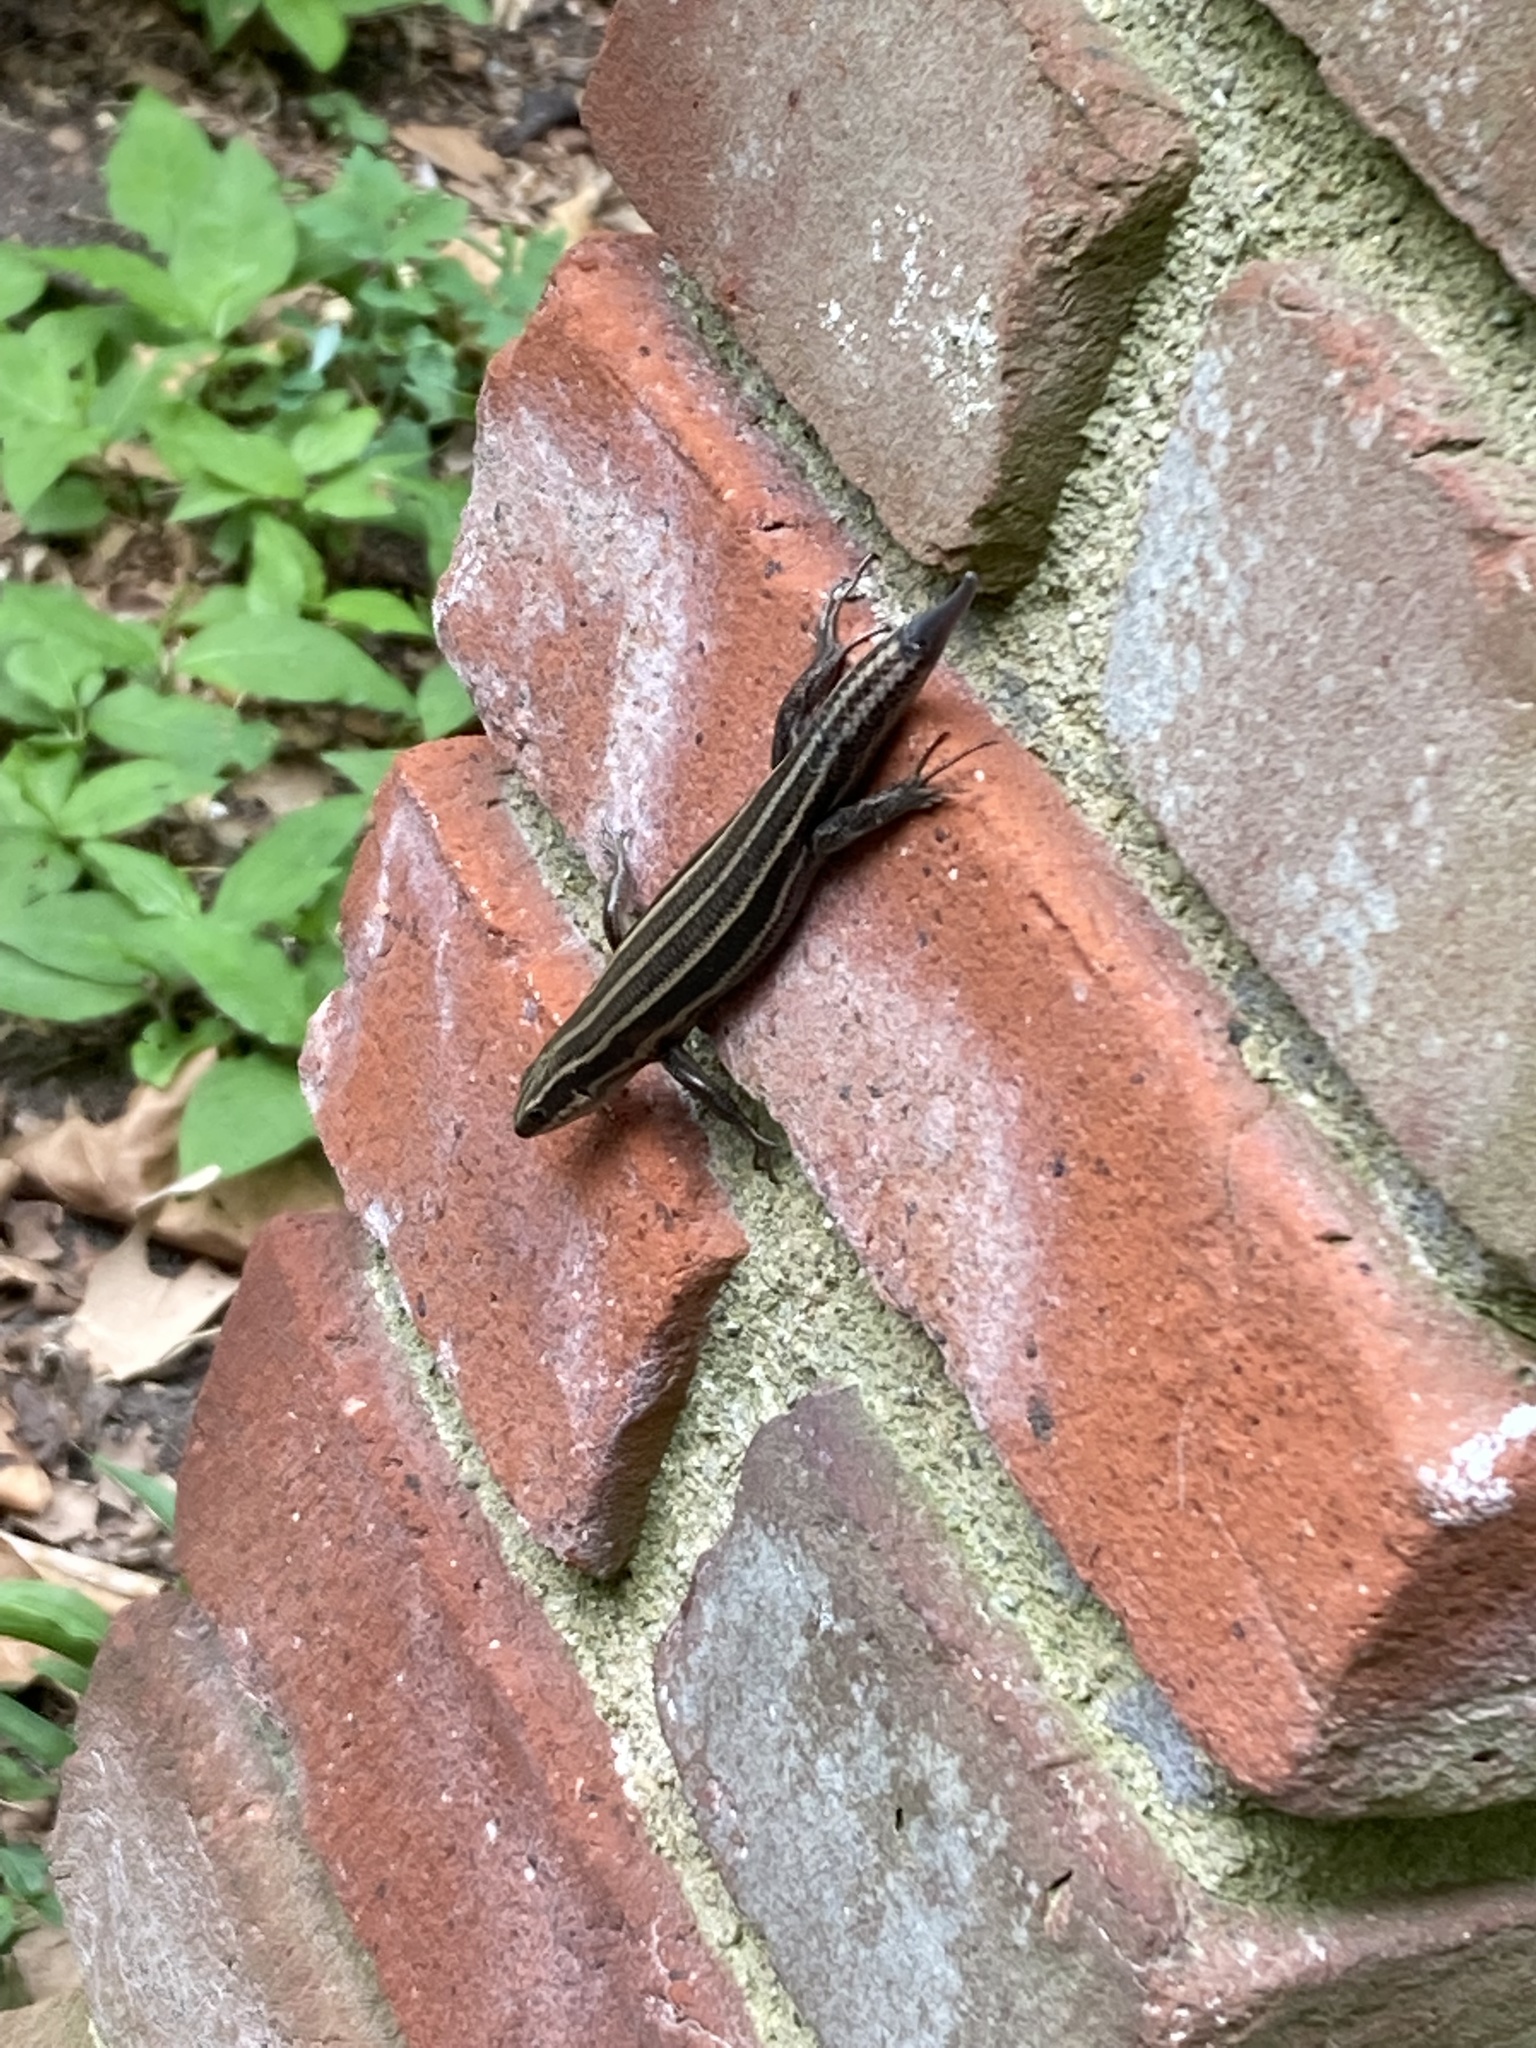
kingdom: Animalia
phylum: Chordata
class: Squamata
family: Scincidae
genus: Plestiodon
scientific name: Plestiodon fasciatus
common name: Five-lined skink
